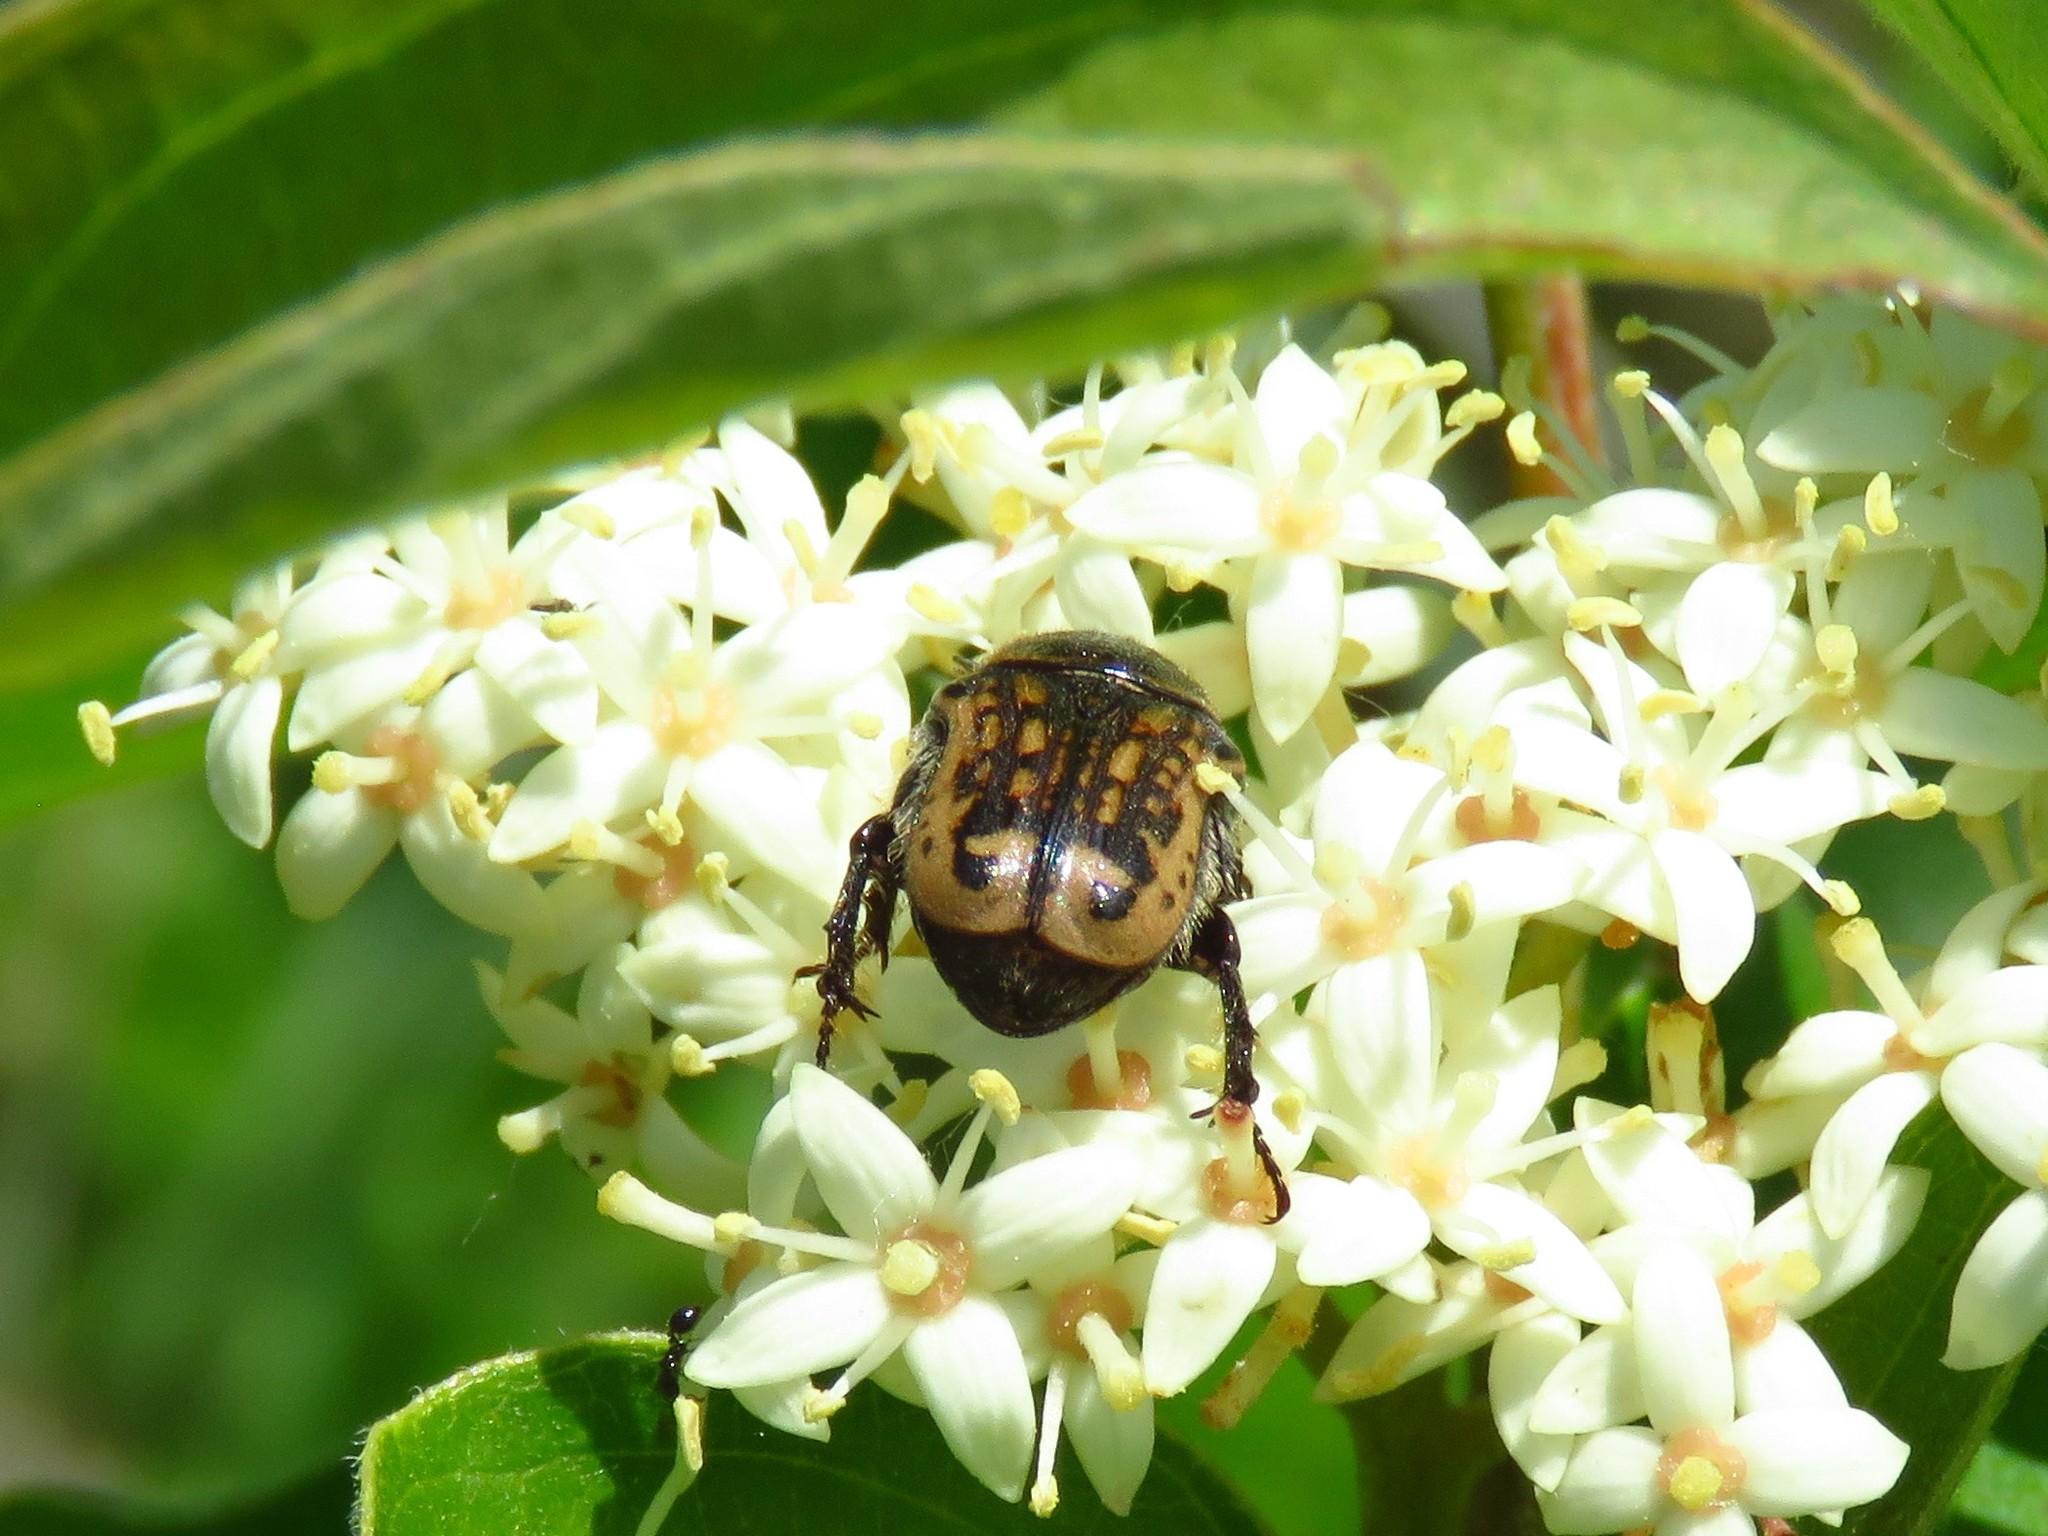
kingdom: Animalia
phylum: Arthropoda
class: Insecta
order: Coleoptera
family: Scarabaeidae
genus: Euphoria
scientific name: Euphoria kernii
